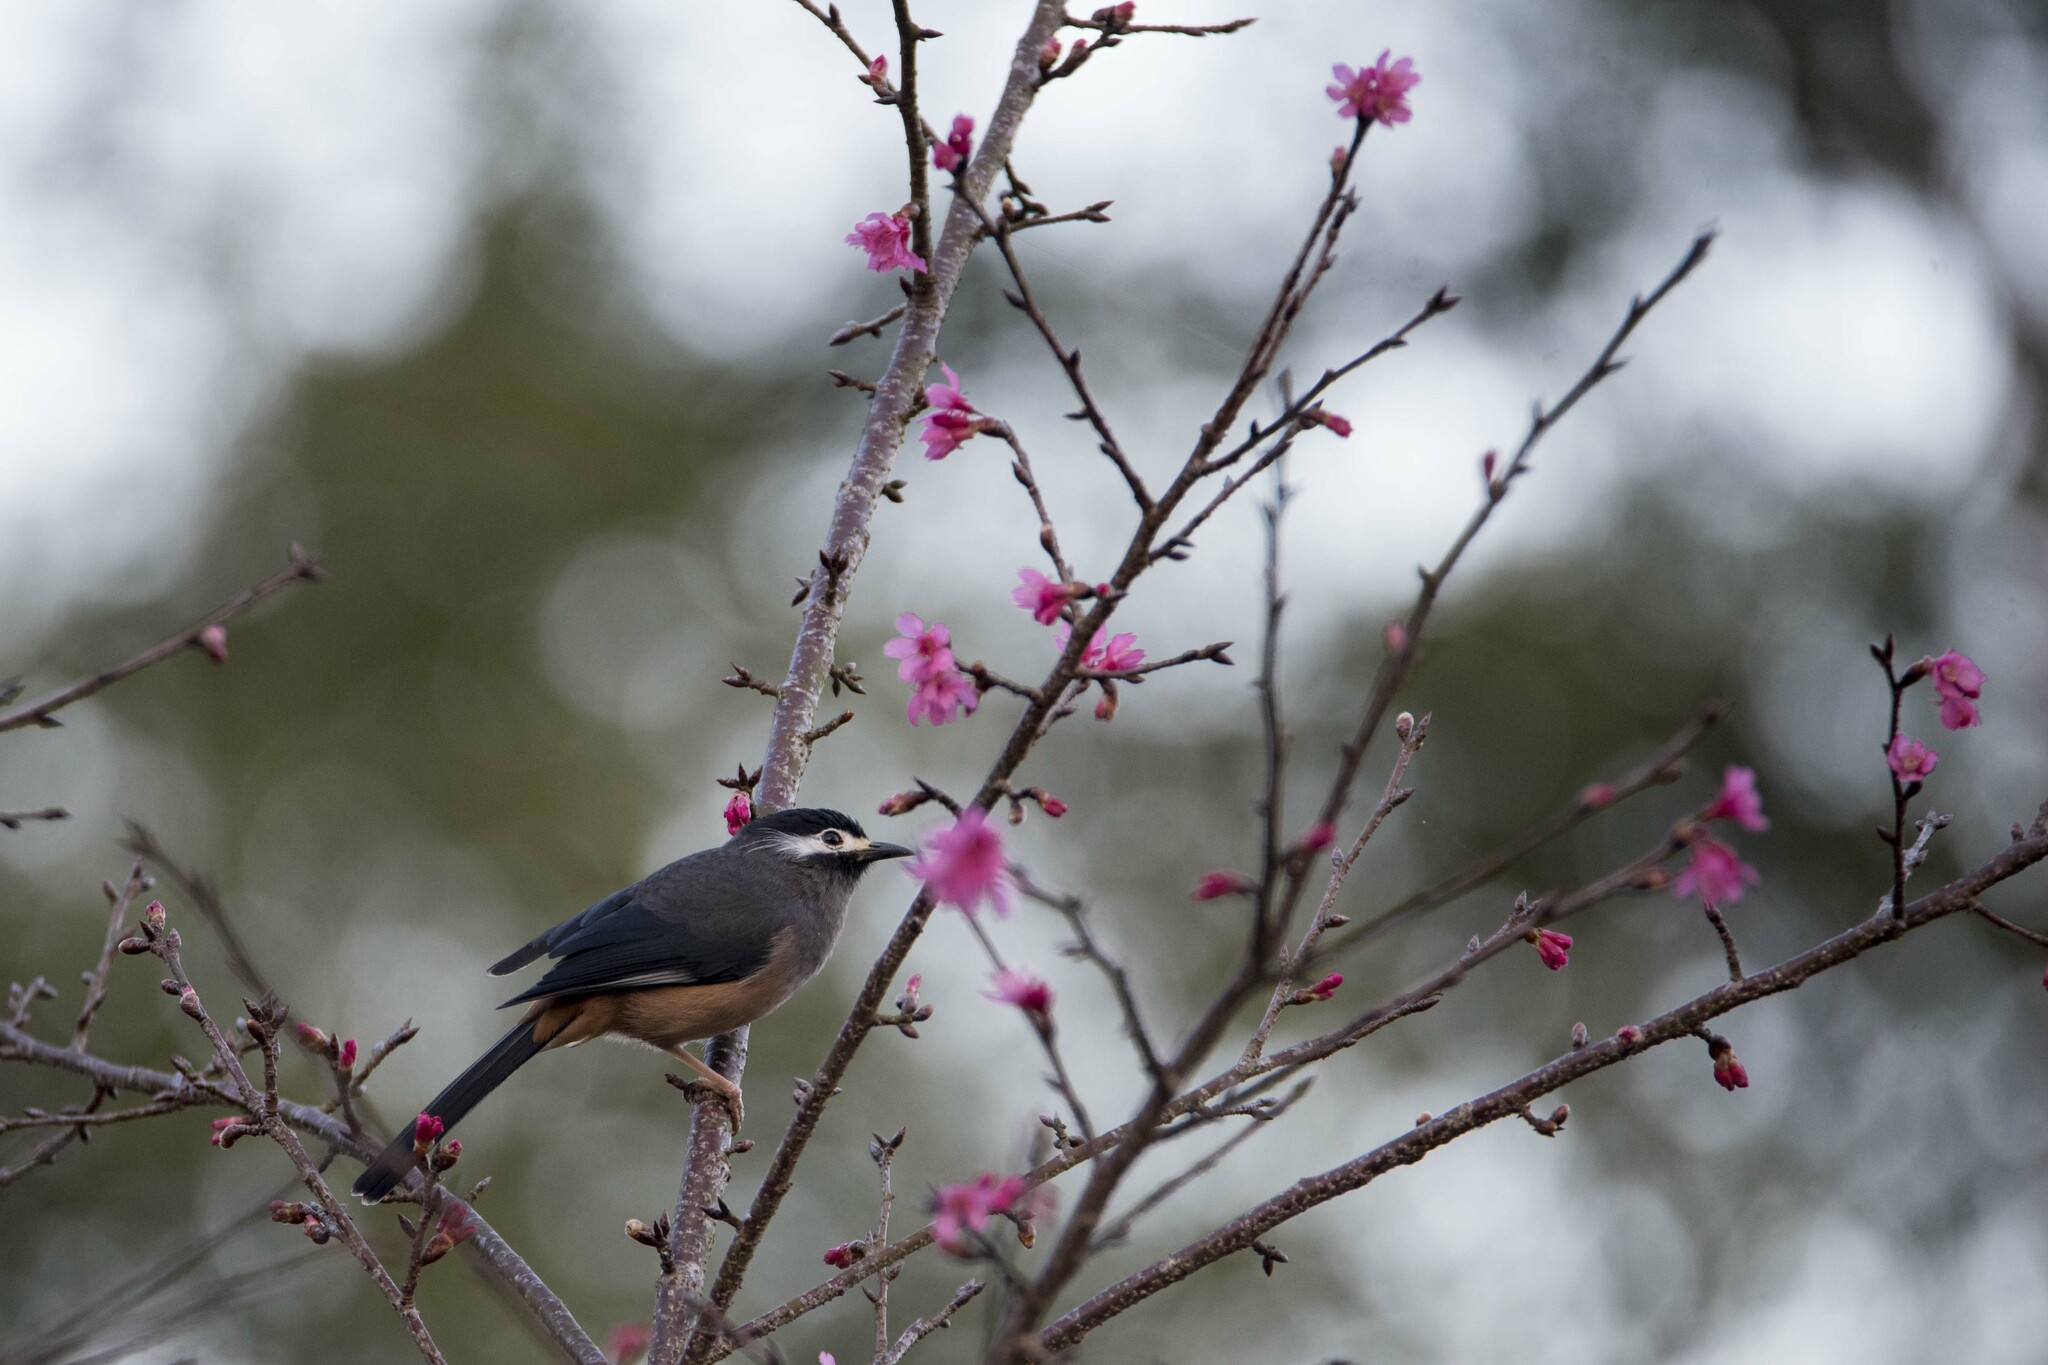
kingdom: Animalia
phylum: Chordata
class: Aves
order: Passeriformes
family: Leiothrichidae
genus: Heterophasia
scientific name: Heterophasia auricularis
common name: White-eared sibia
